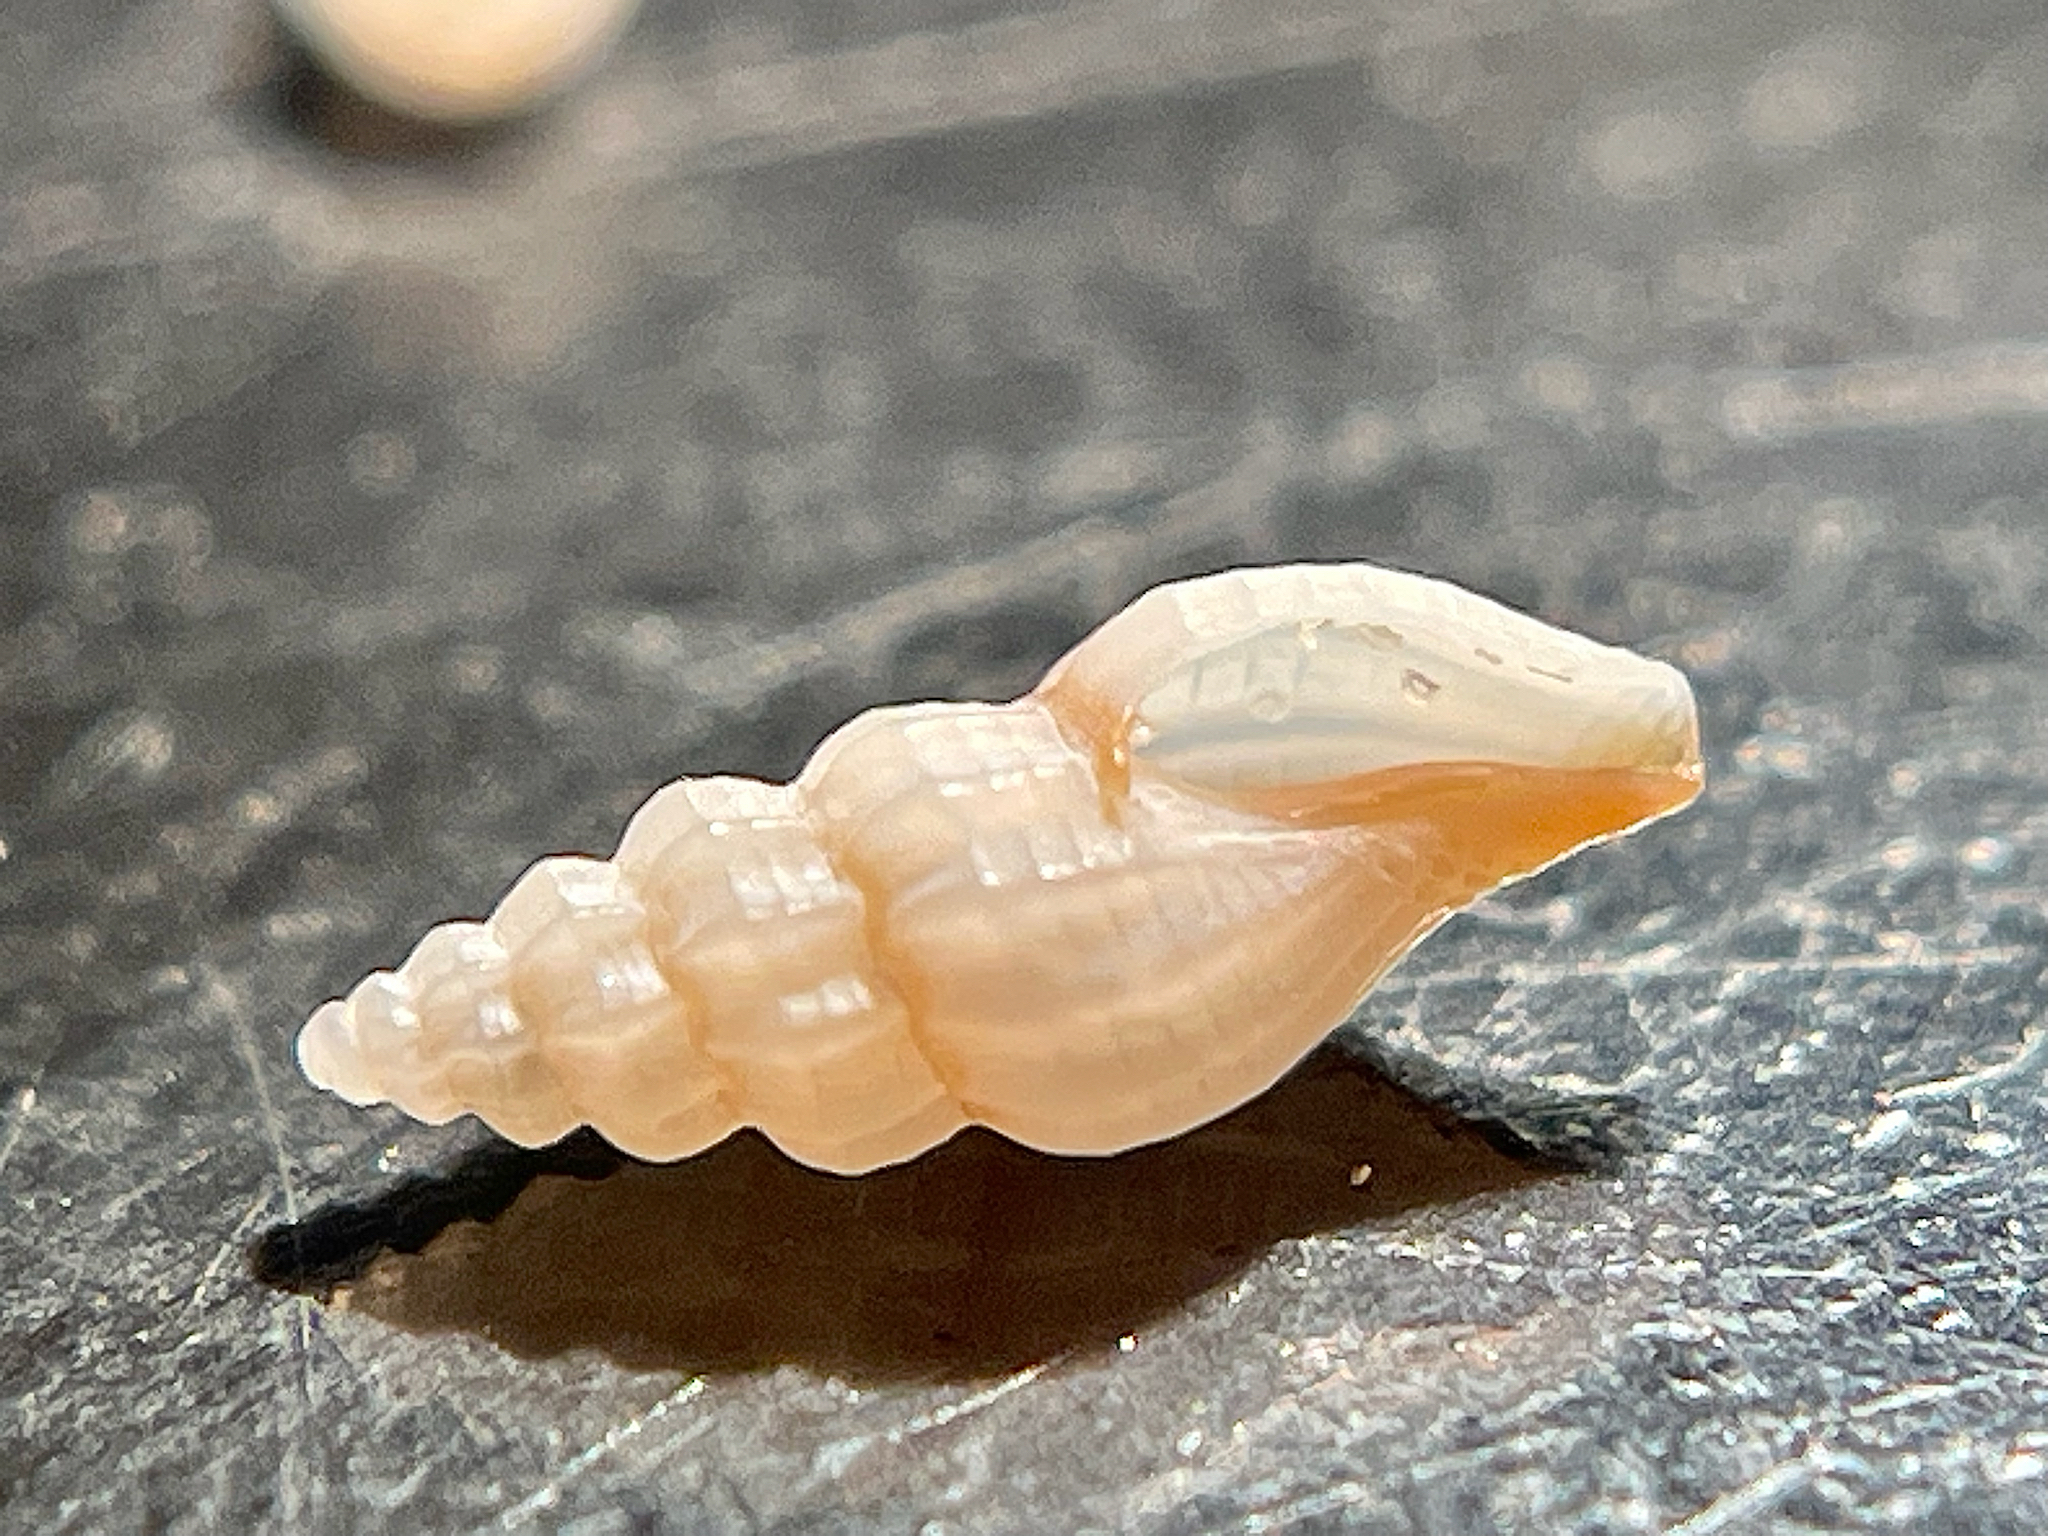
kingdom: Animalia
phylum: Mollusca
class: Gastropoda
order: Neogastropoda
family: Mangeliidae
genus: Kurtziella
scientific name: Kurtziella atrostyla
